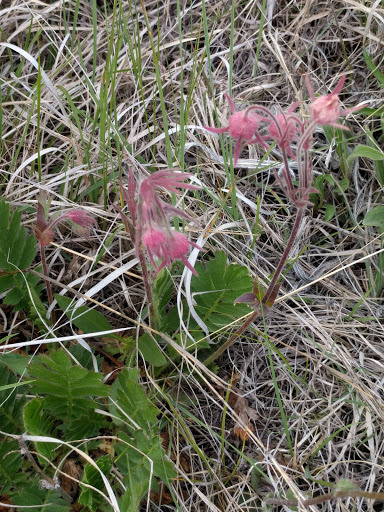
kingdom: Plantae
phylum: Tracheophyta
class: Magnoliopsida
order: Rosales
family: Rosaceae
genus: Geum
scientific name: Geum triflorum
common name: Old man's whiskers
